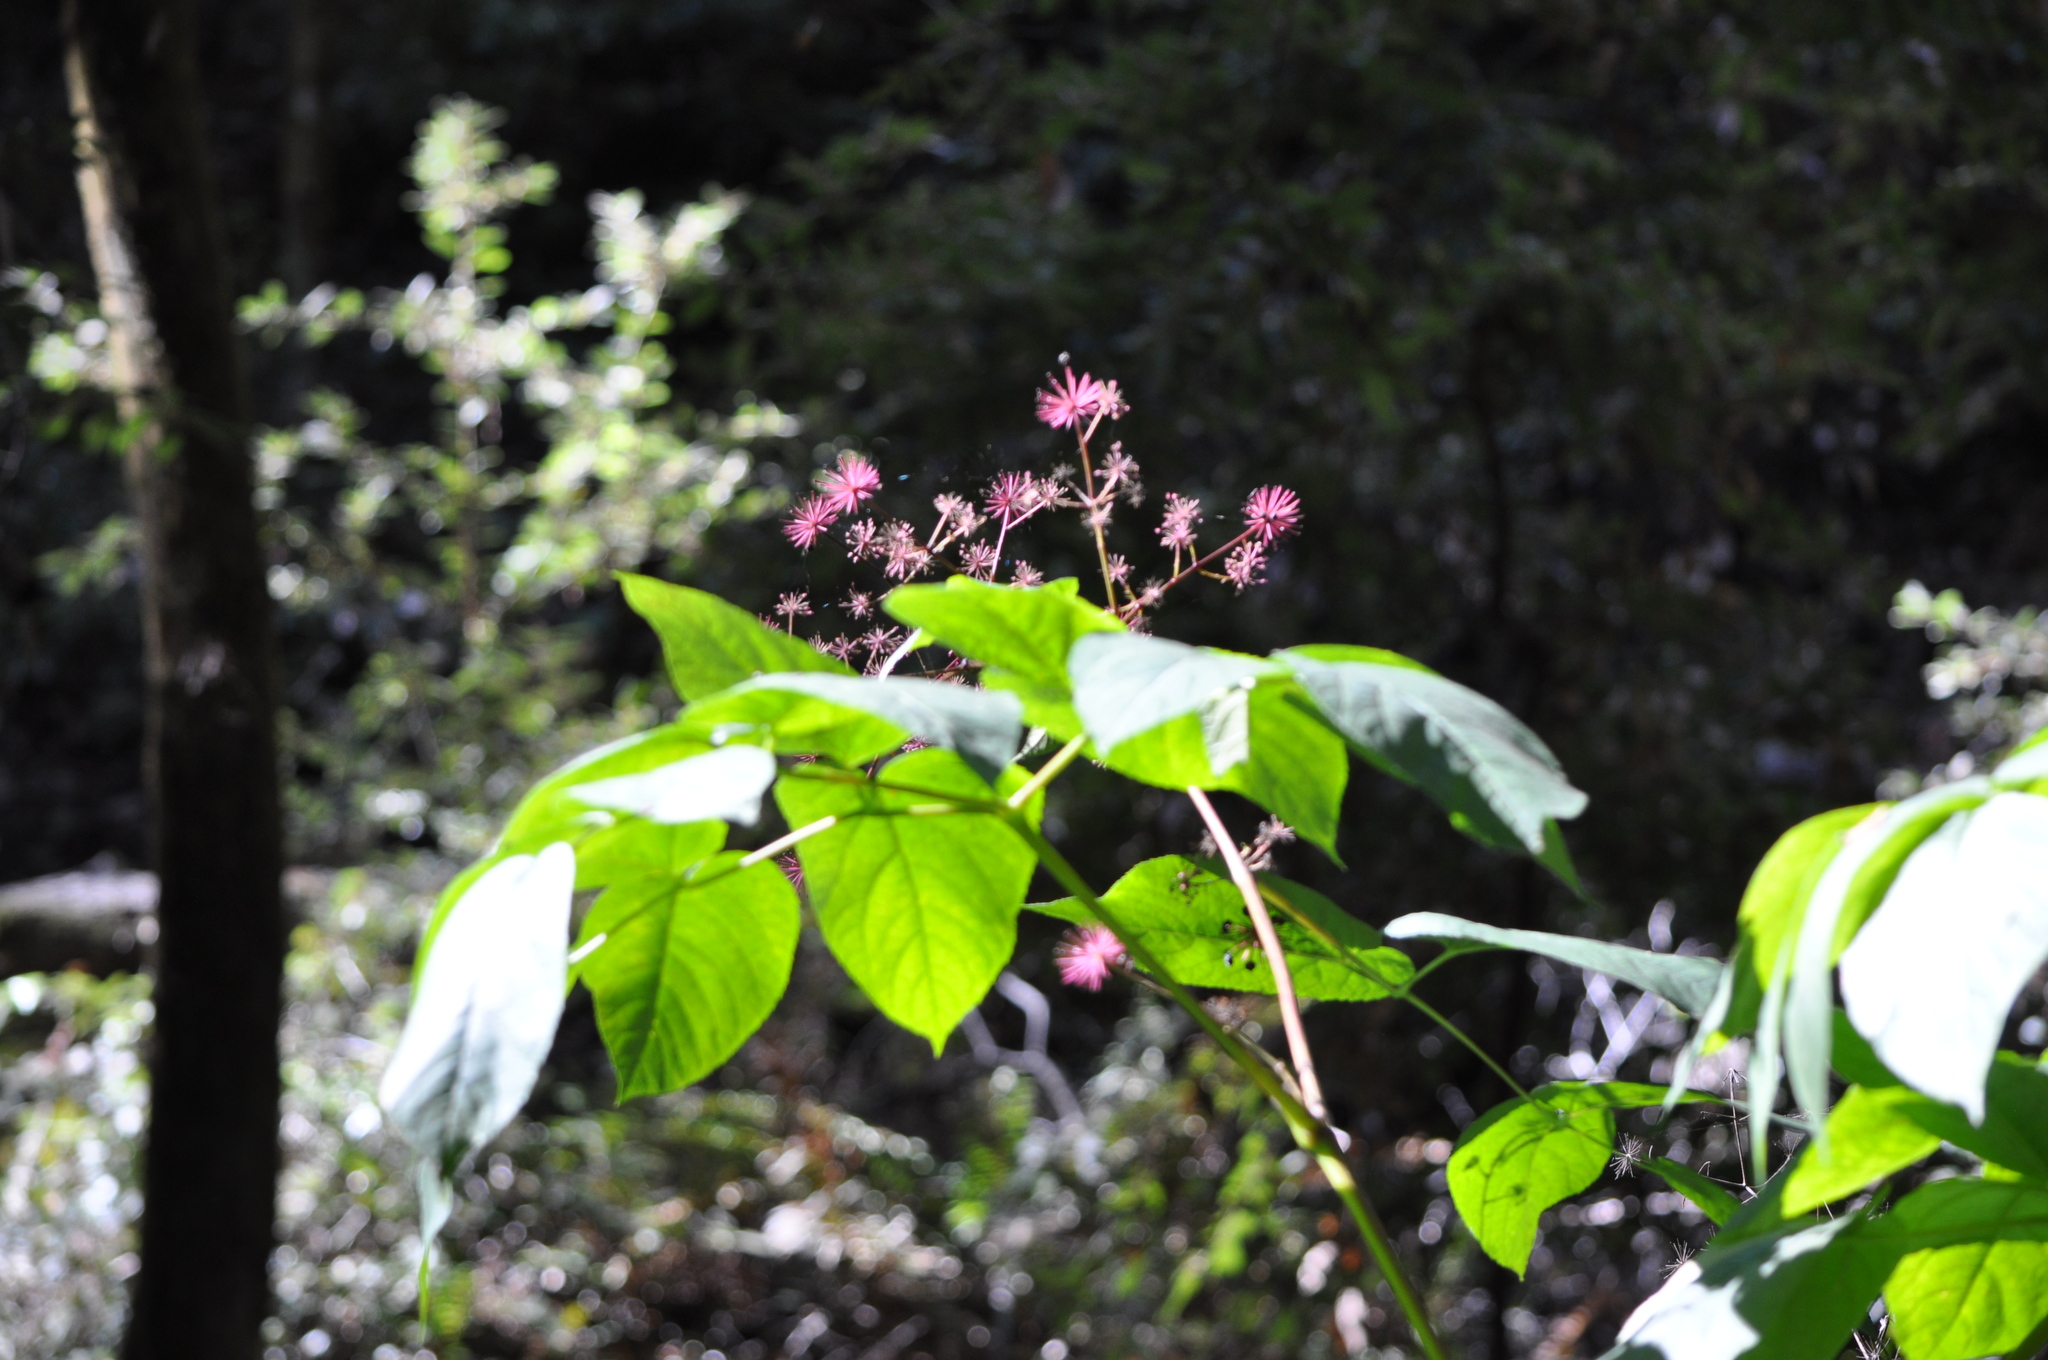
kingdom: Plantae
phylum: Tracheophyta
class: Magnoliopsida
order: Apiales
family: Araliaceae
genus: Aralia
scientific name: Aralia californica
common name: California-ginseng
